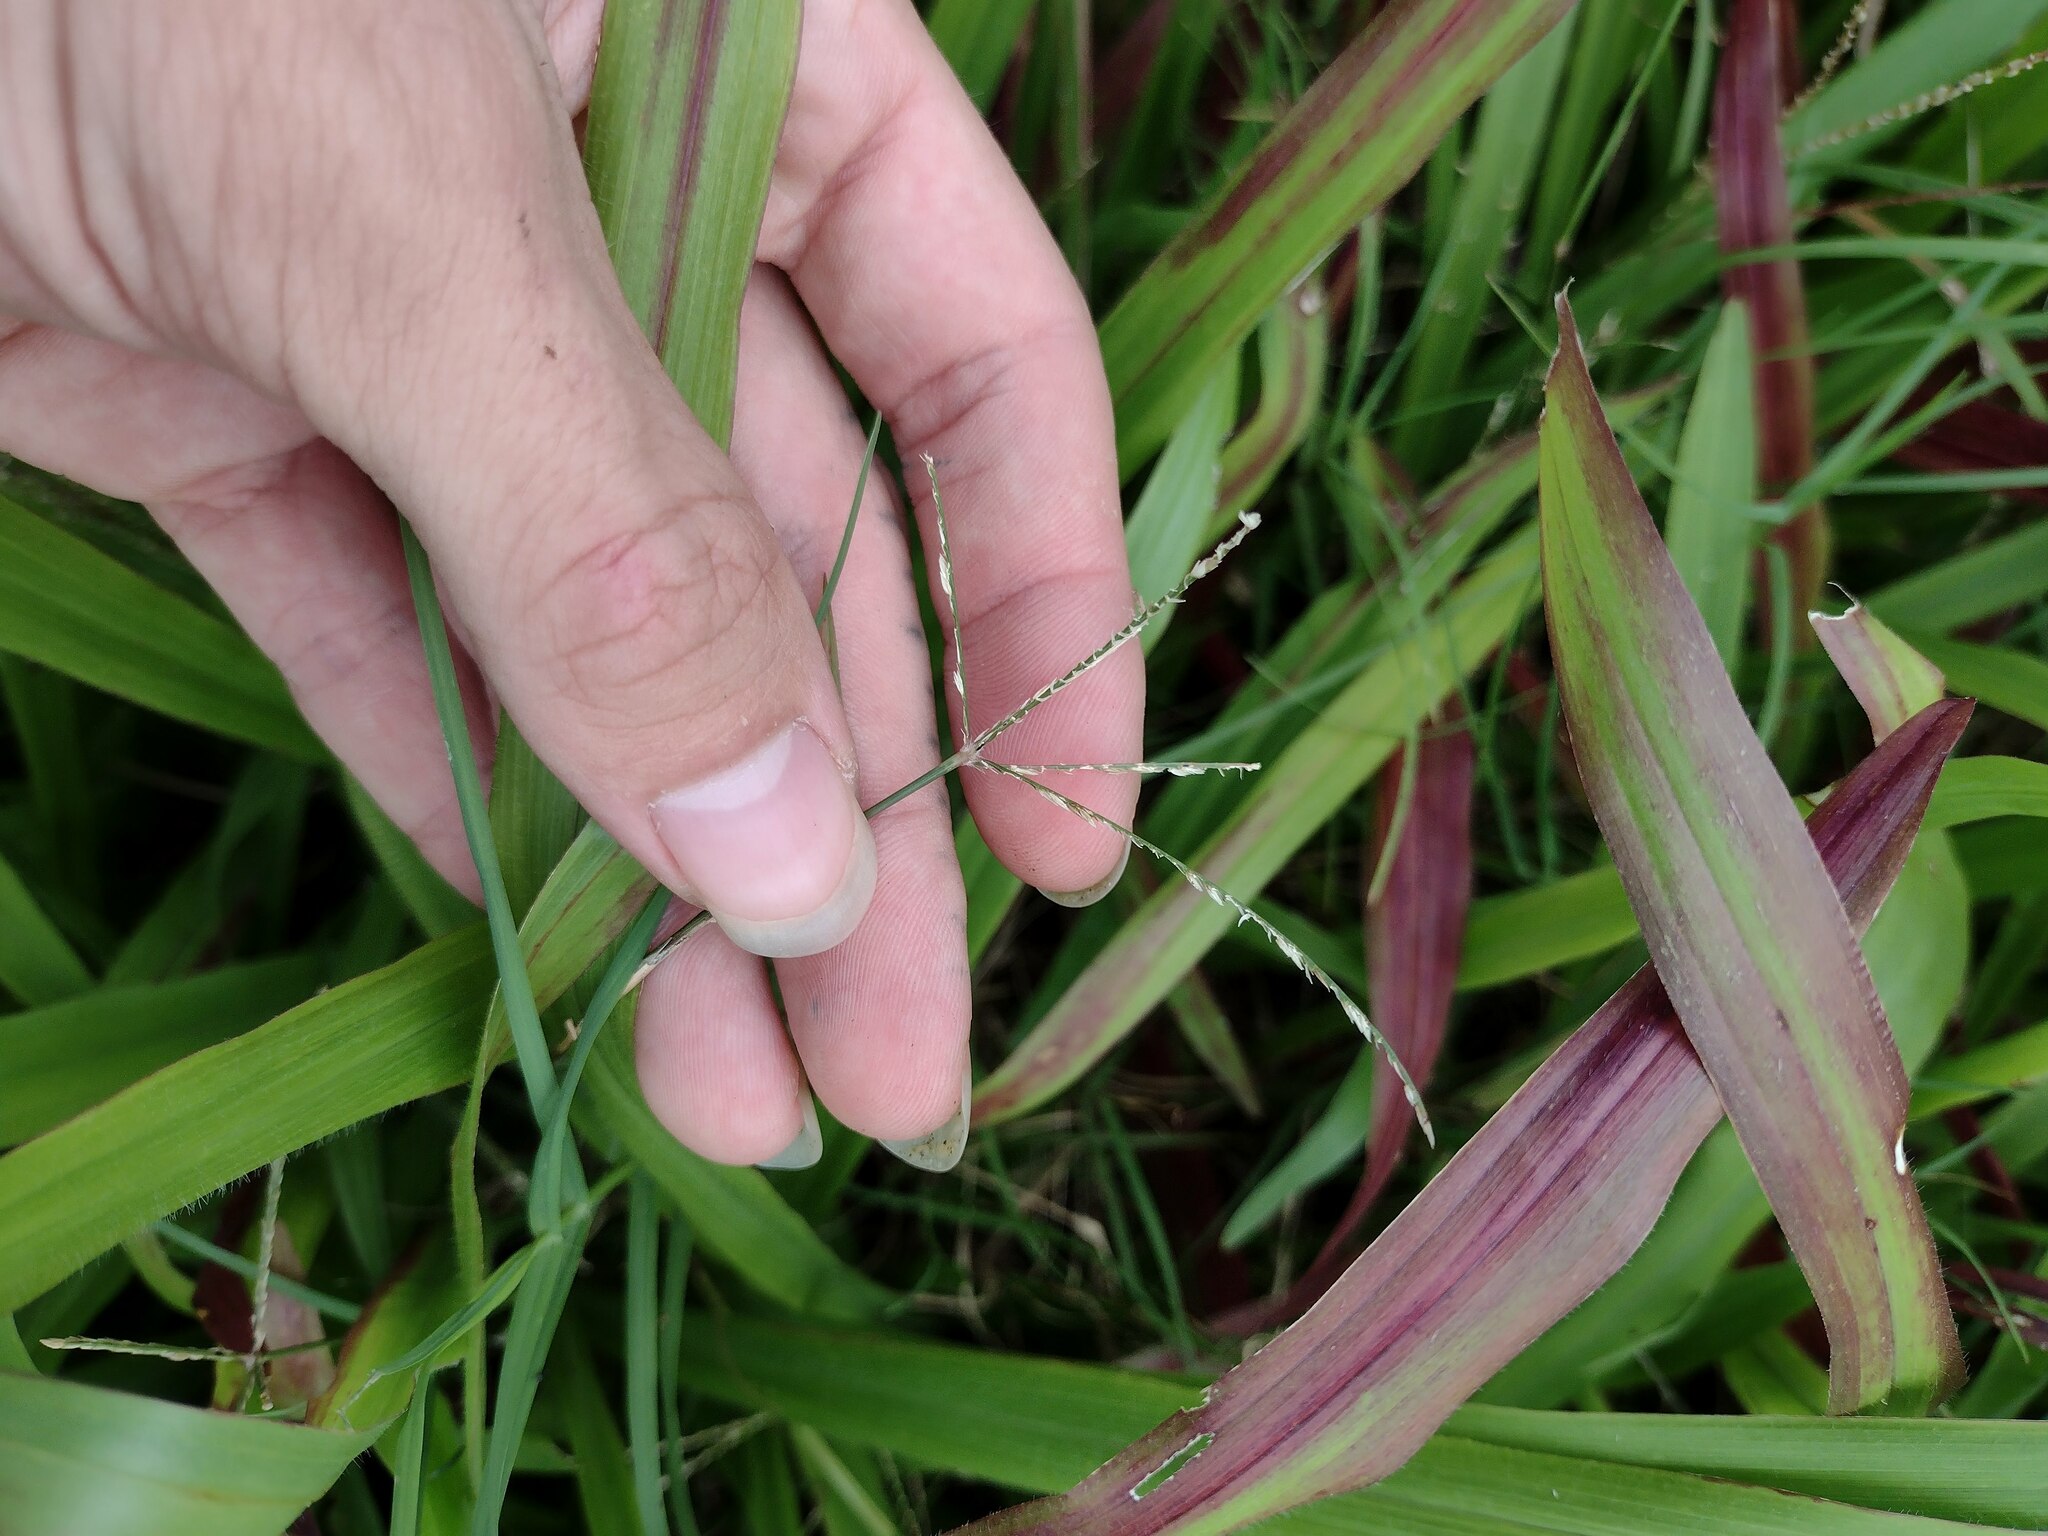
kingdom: Plantae
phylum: Tracheophyta
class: Liliopsida
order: Poales
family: Poaceae
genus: Cynodon
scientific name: Cynodon dactylon
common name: Bermuda grass
